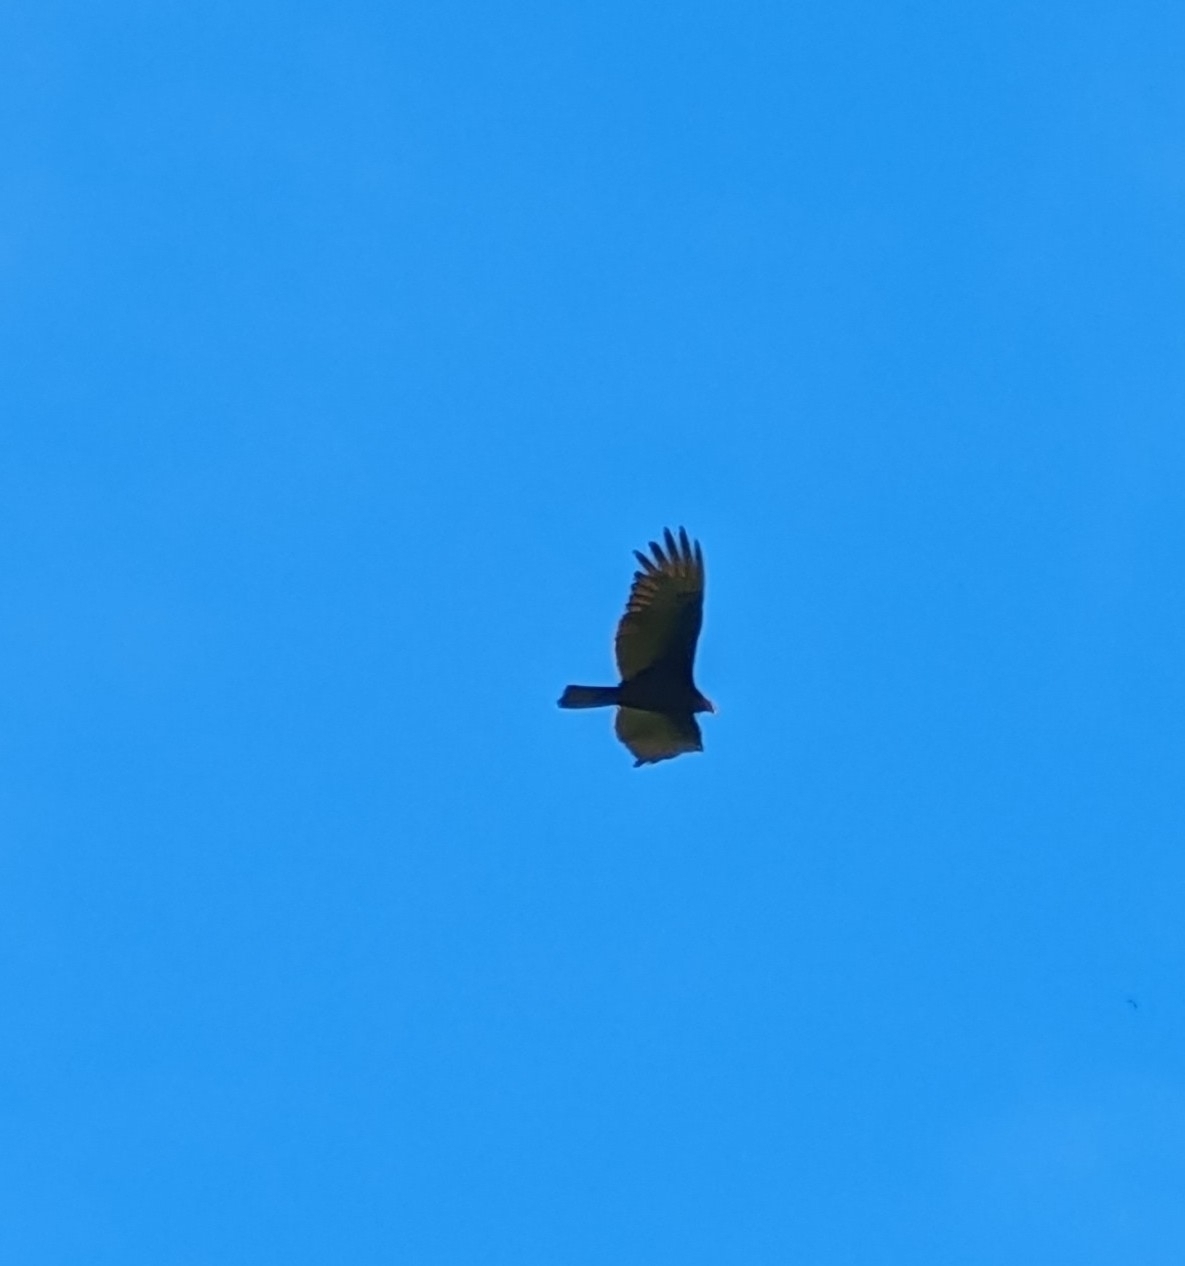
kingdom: Animalia
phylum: Chordata
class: Aves
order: Accipitriformes
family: Cathartidae
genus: Cathartes
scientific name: Cathartes aura
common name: Turkey vulture
